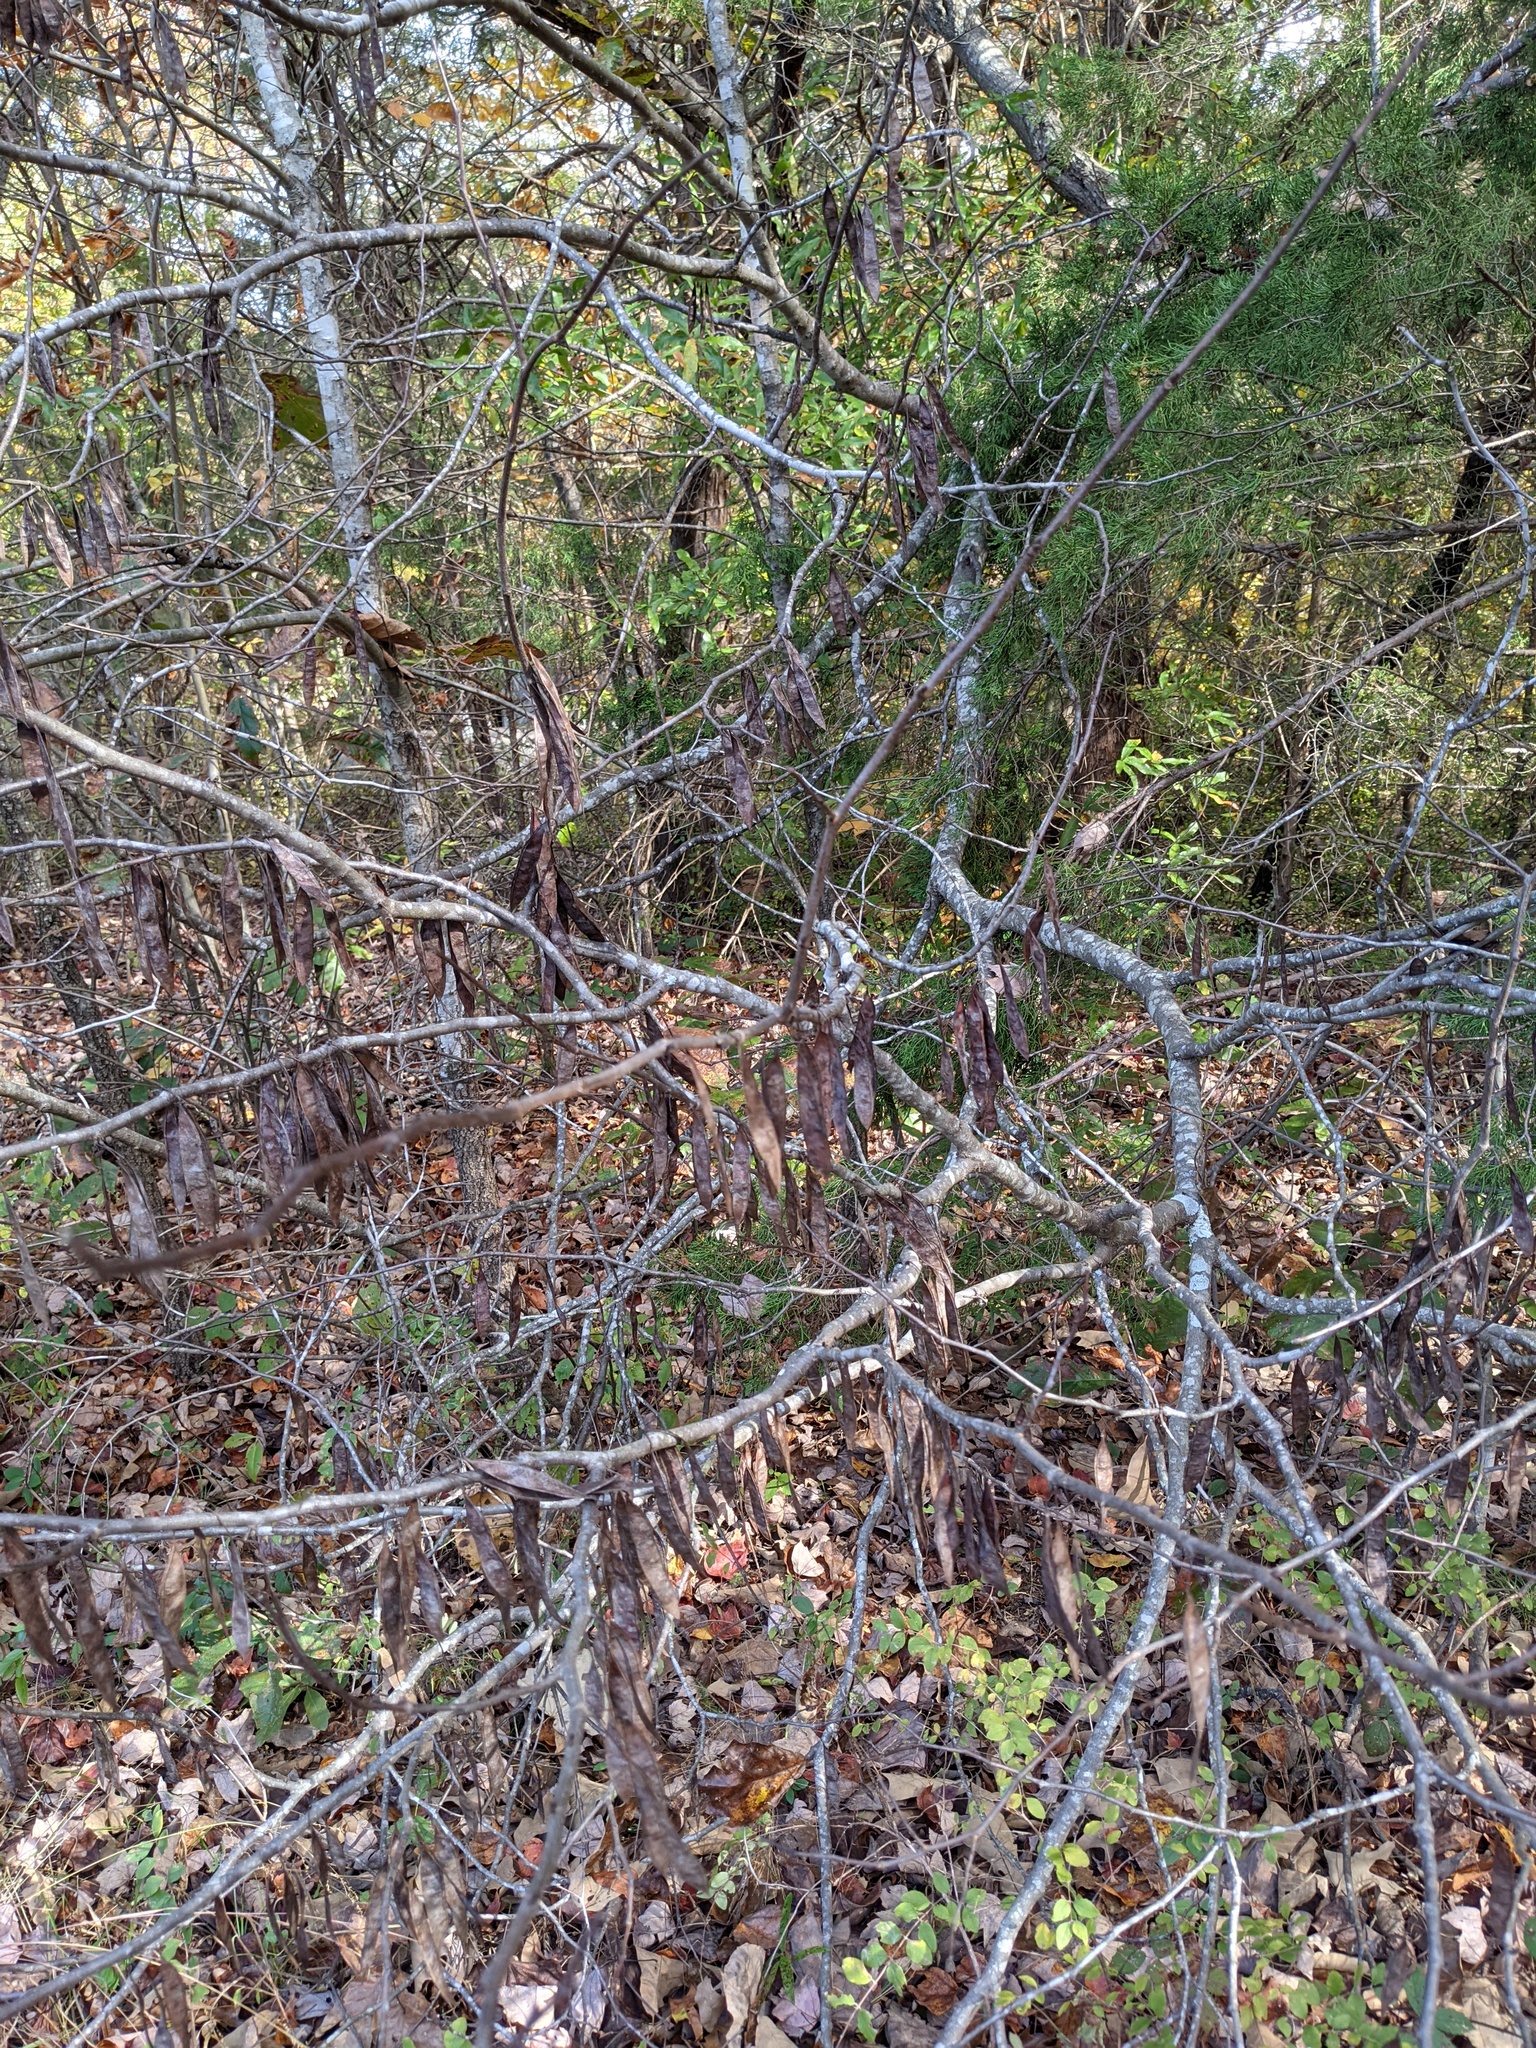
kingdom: Plantae
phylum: Tracheophyta
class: Magnoliopsida
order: Fabales
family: Fabaceae
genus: Cercis
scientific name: Cercis canadensis
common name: Eastern redbud
